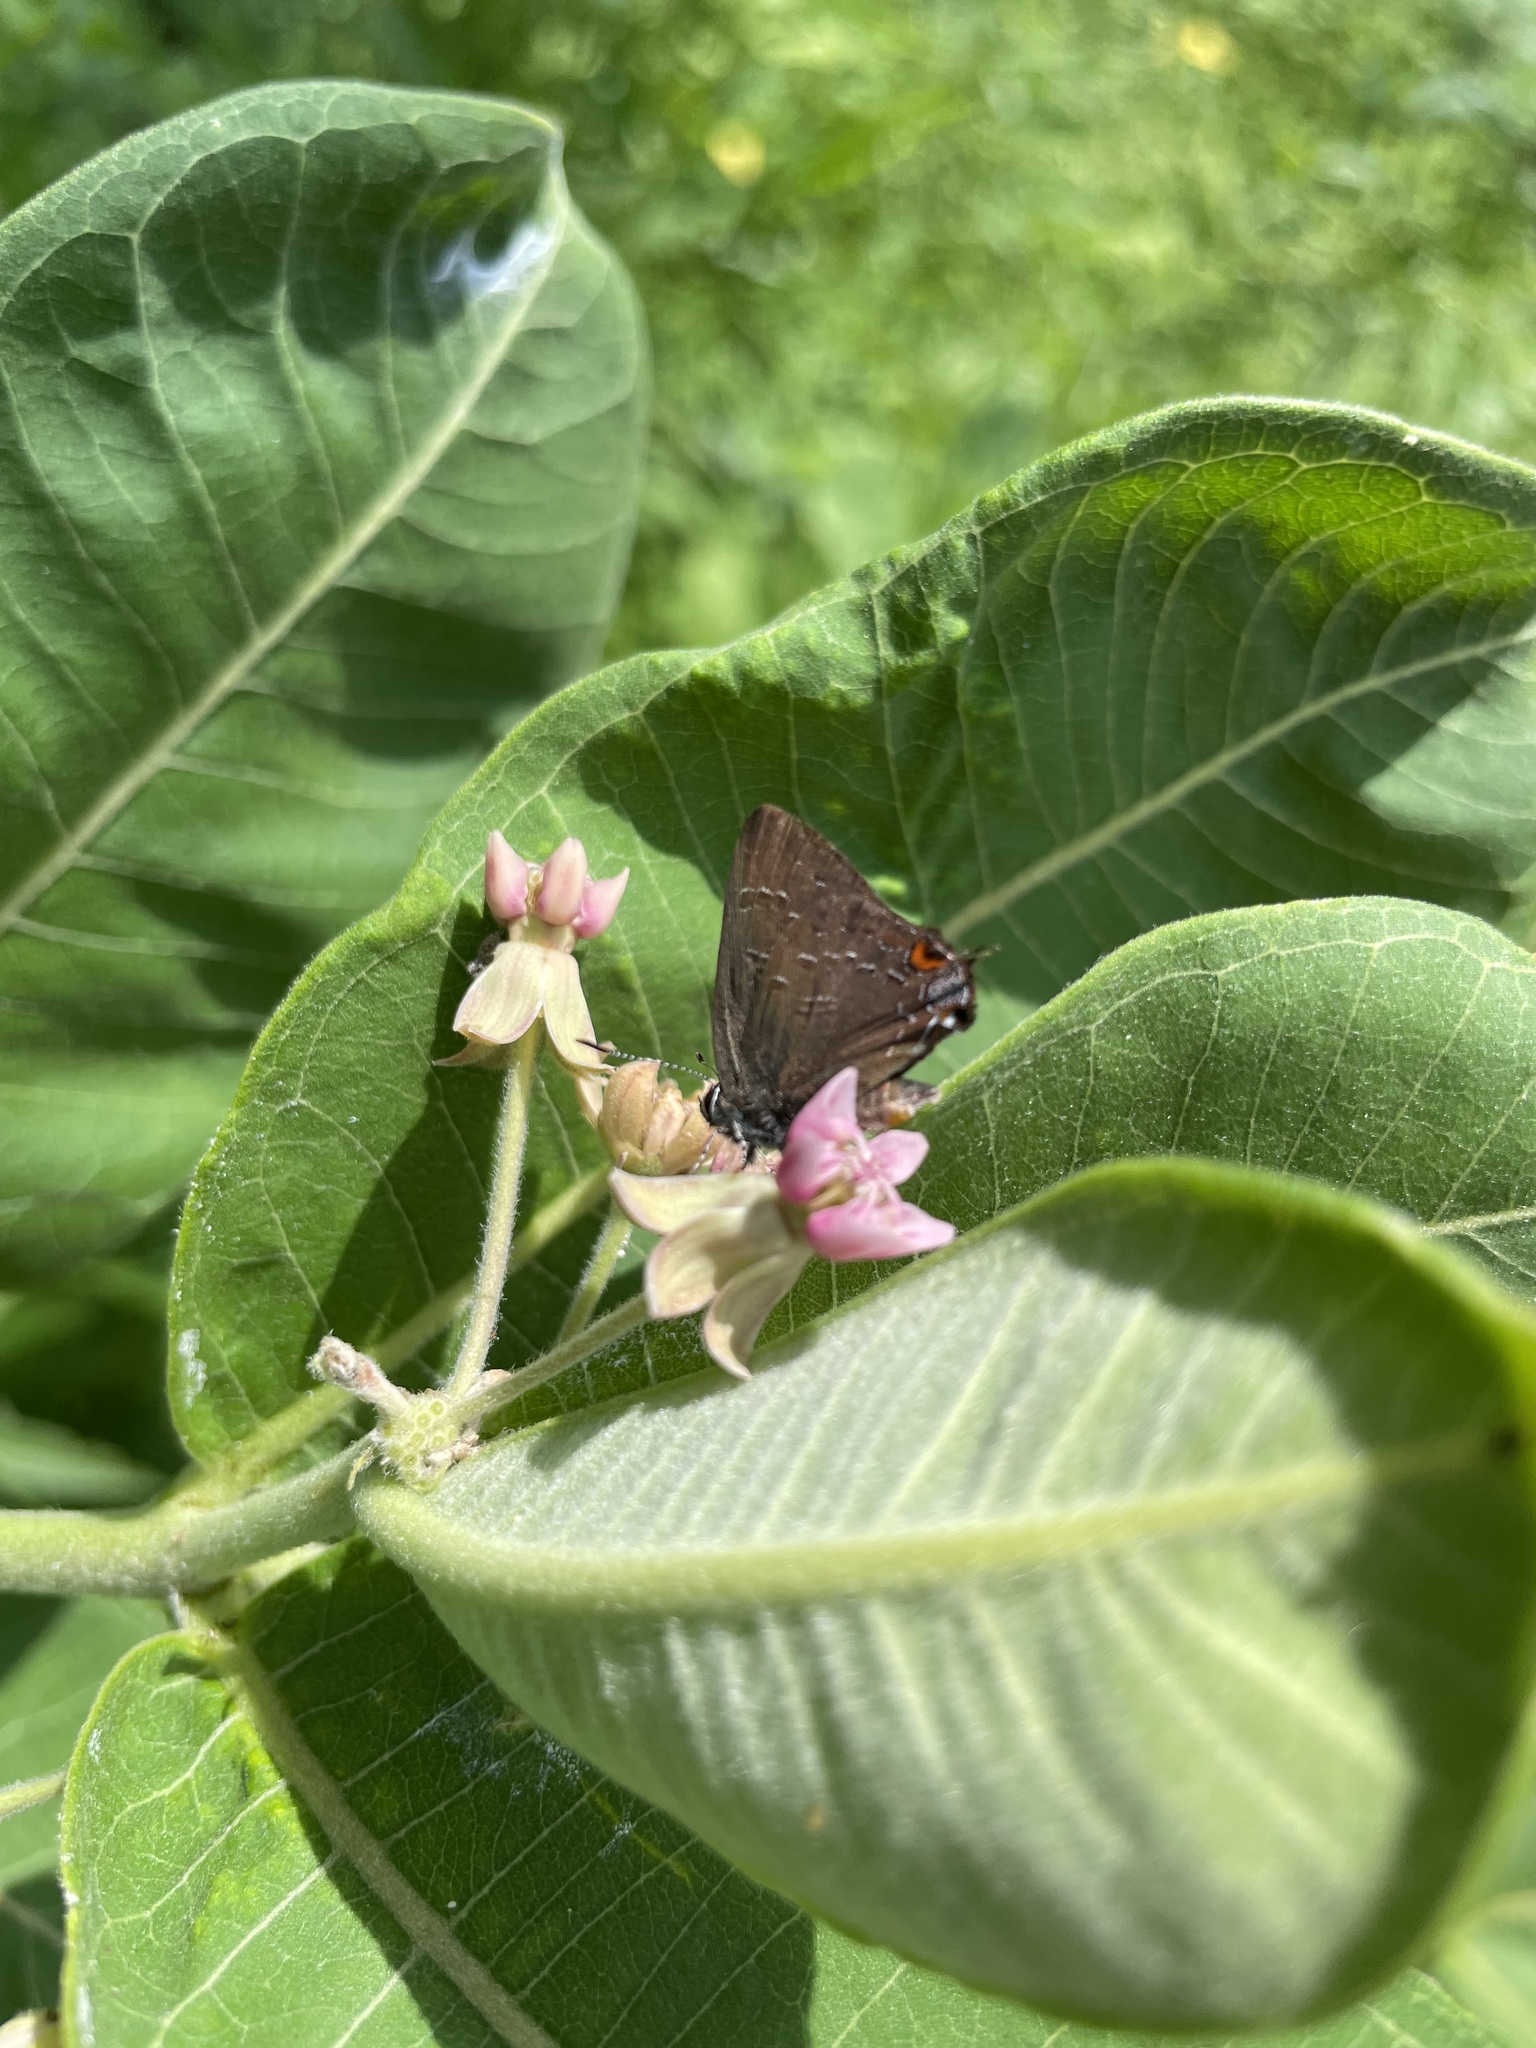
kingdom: Animalia
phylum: Arthropoda
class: Insecta
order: Lepidoptera
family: Lycaenidae
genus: Satyrium
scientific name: Satyrium calanus
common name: Banded hairstreak
